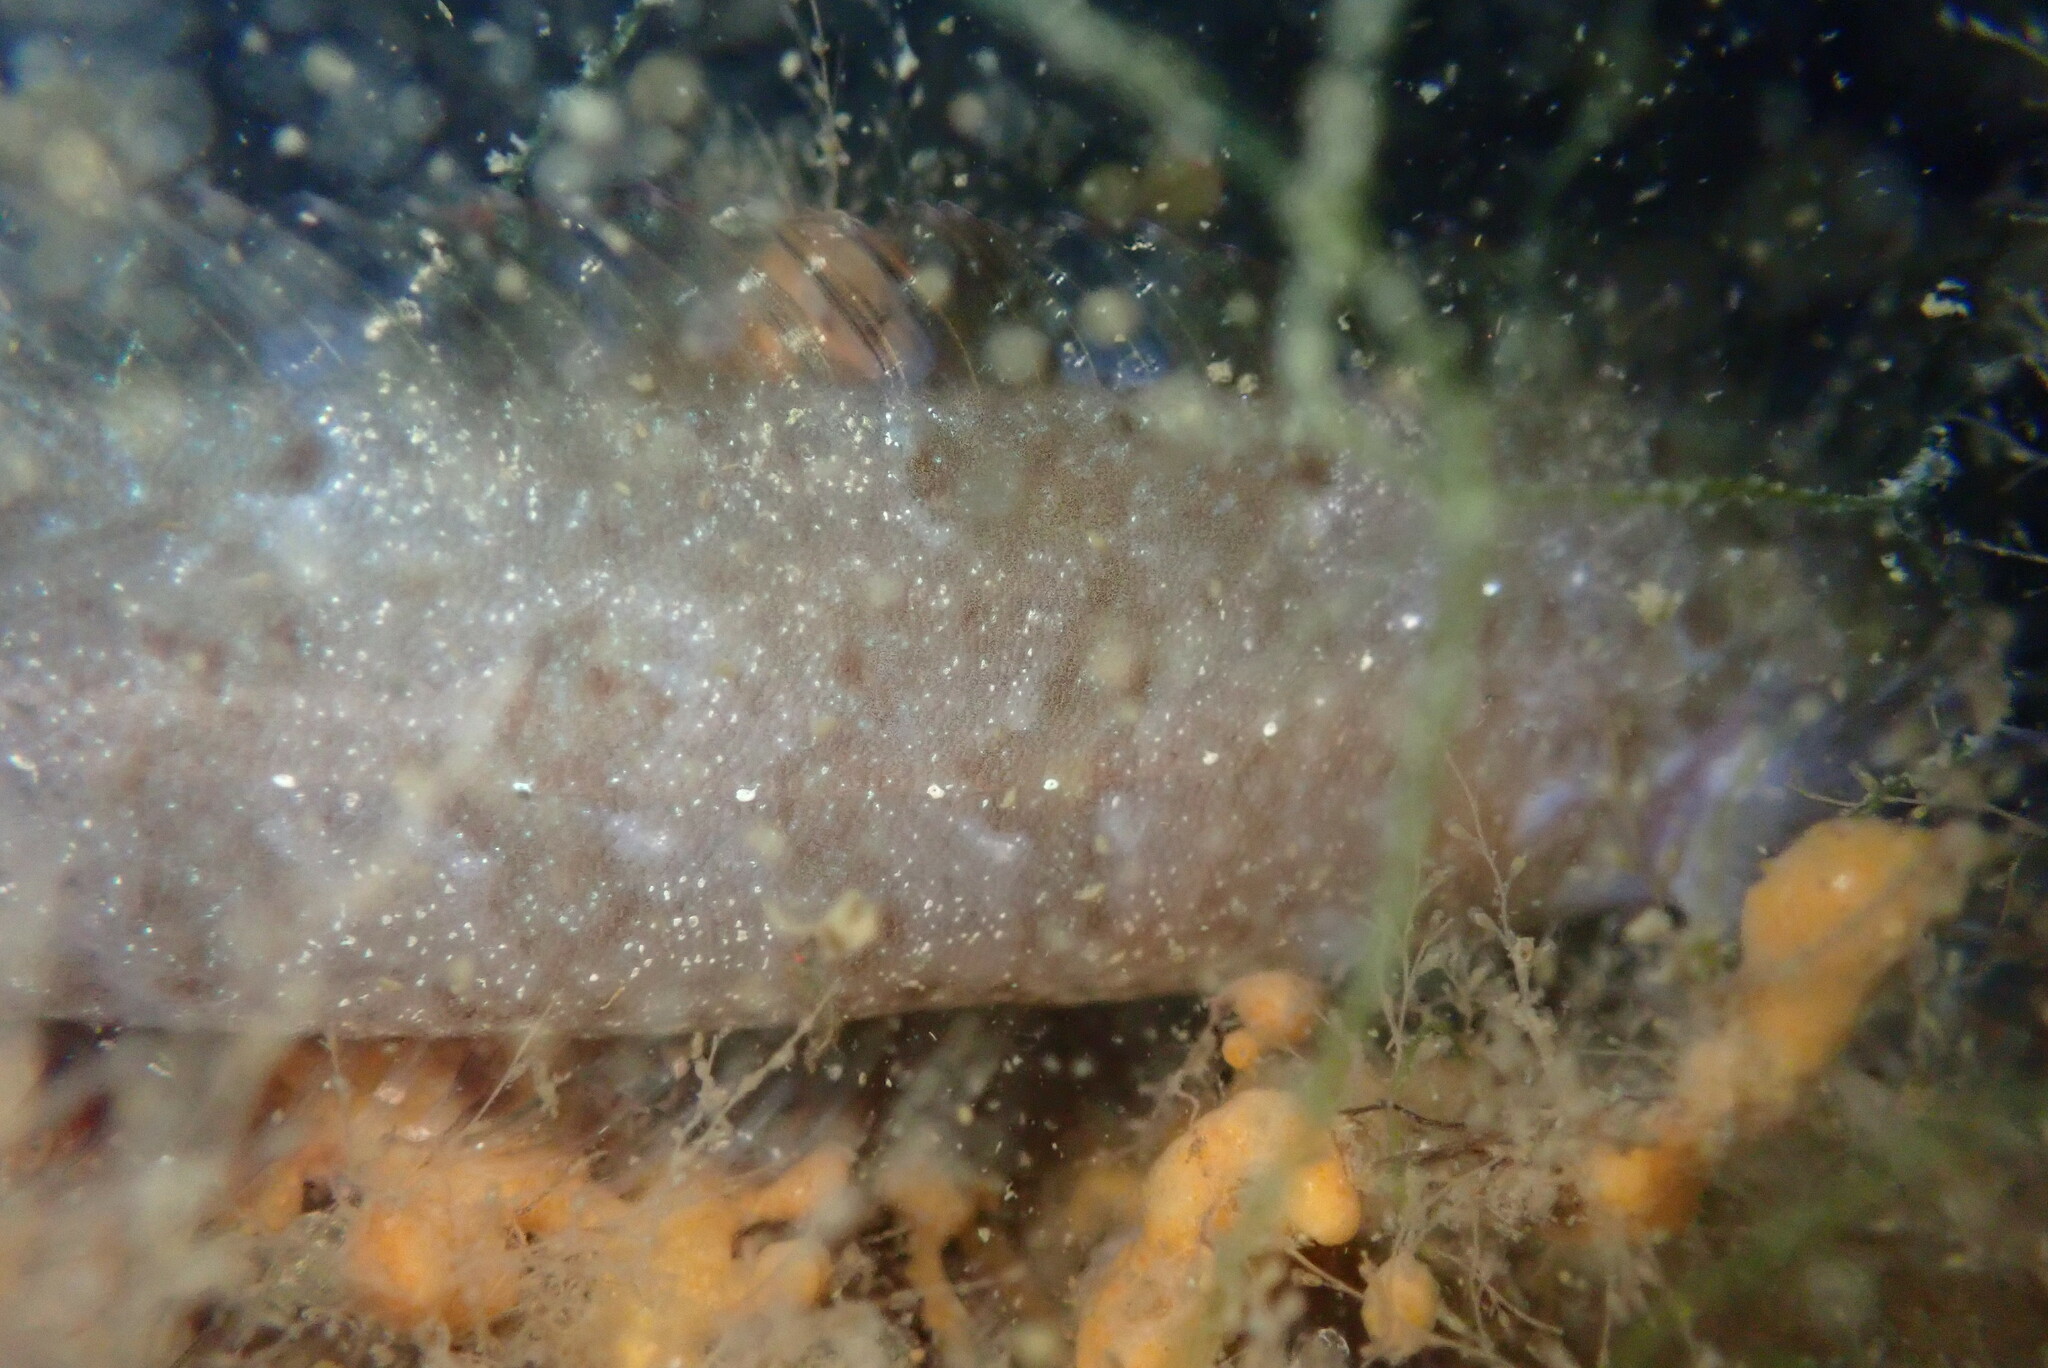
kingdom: Animalia
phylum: Chordata
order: Perciformes
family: Clinidae
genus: Gibbonsia
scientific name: Gibbonsia metzi
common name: Striped kelpfish
